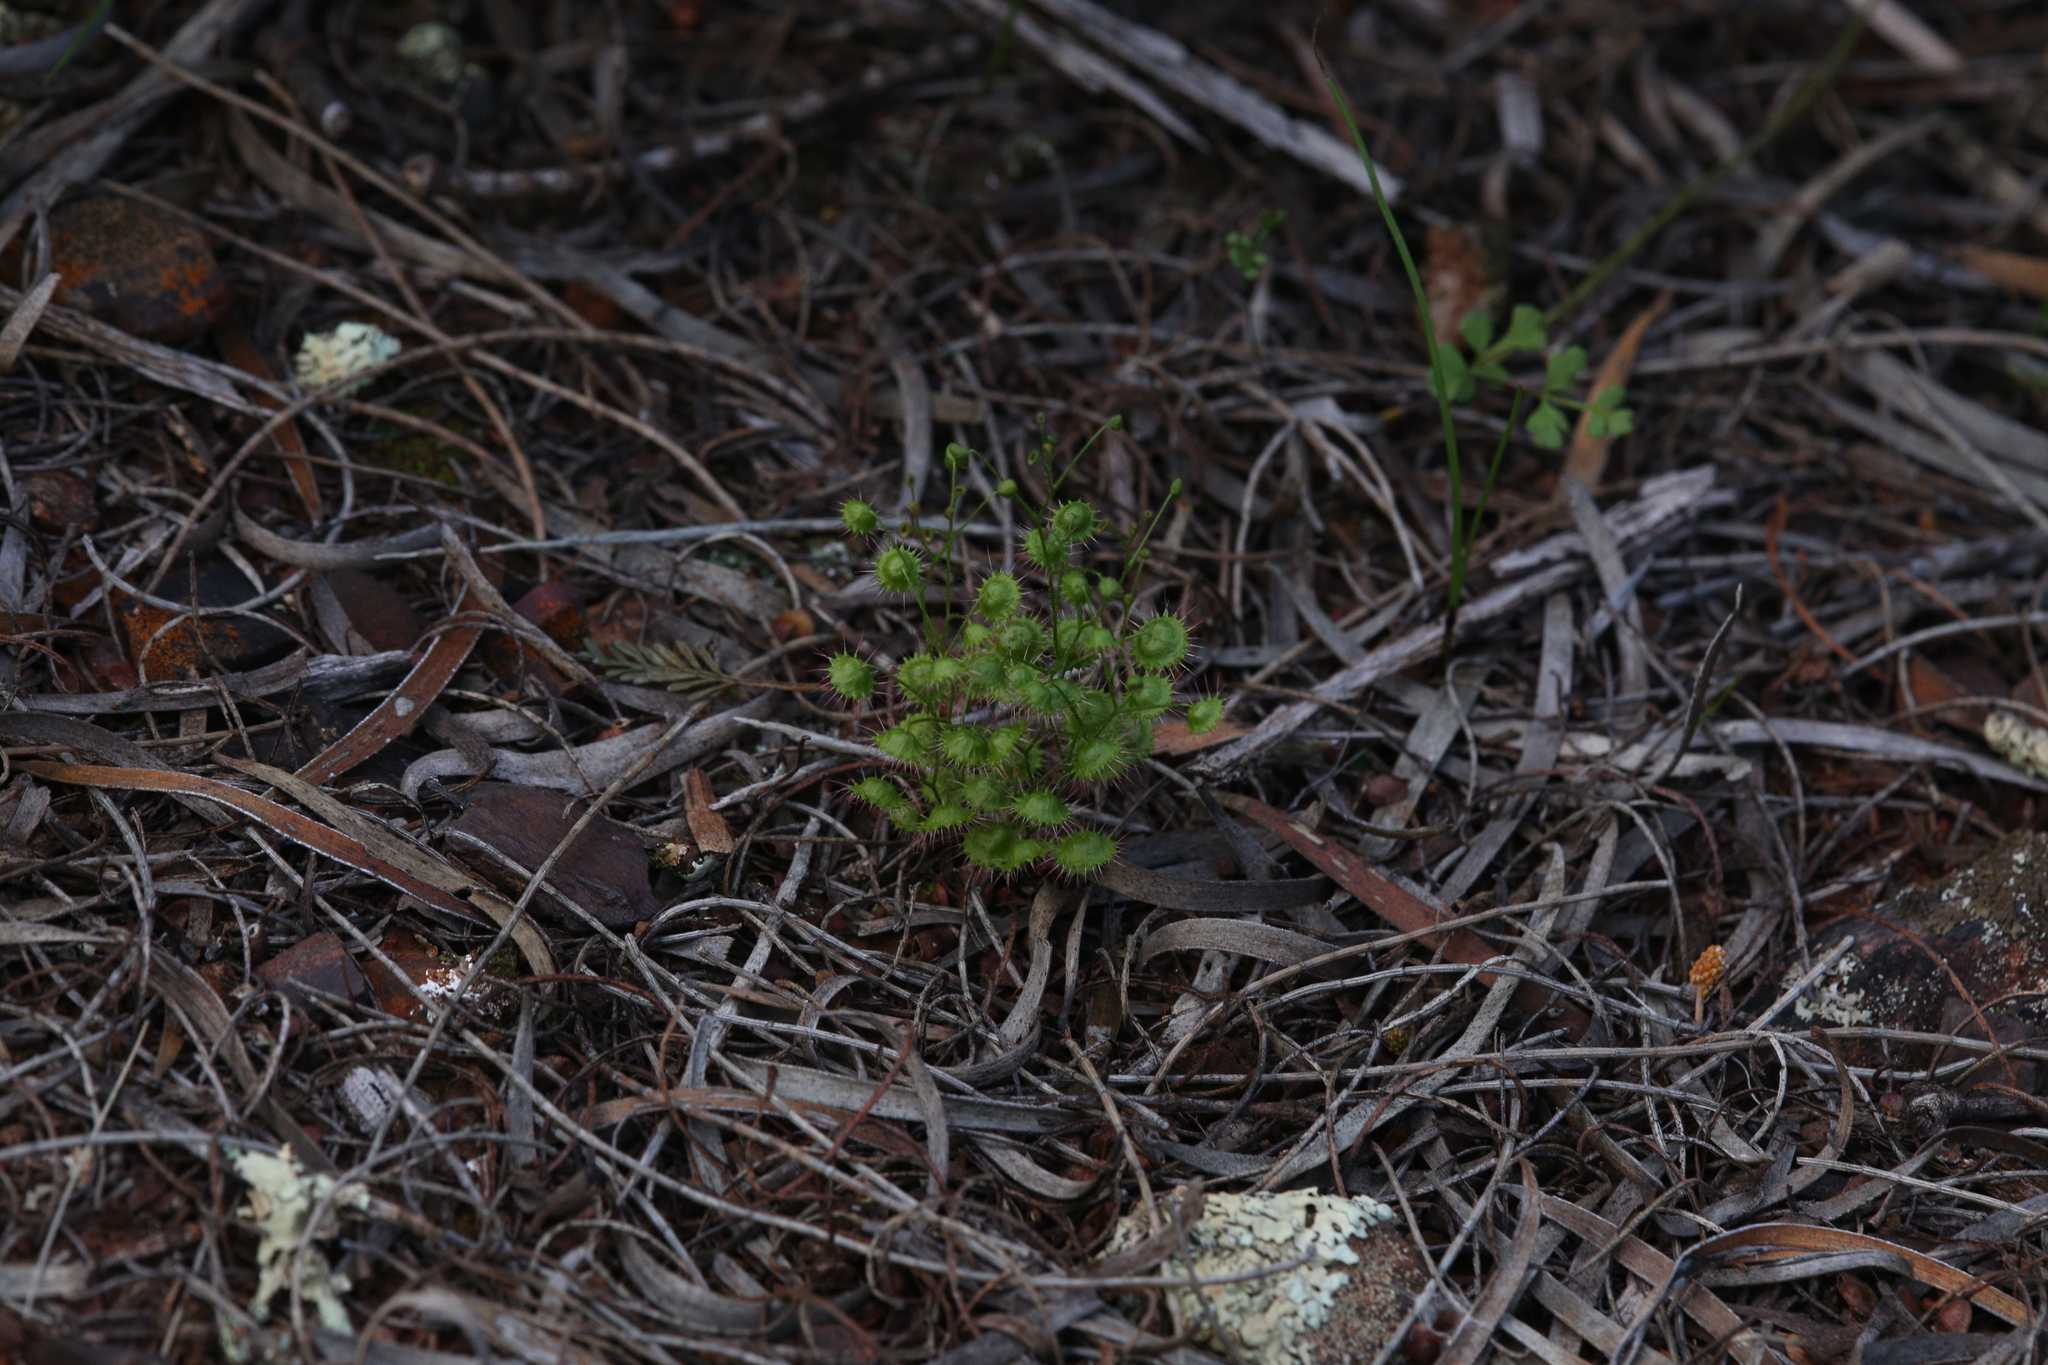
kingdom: Plantae
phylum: Tracheophyta
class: Magnoliopsida
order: Caryophyllales
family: Droseraceae
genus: Drosera
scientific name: Drosera macrantha
